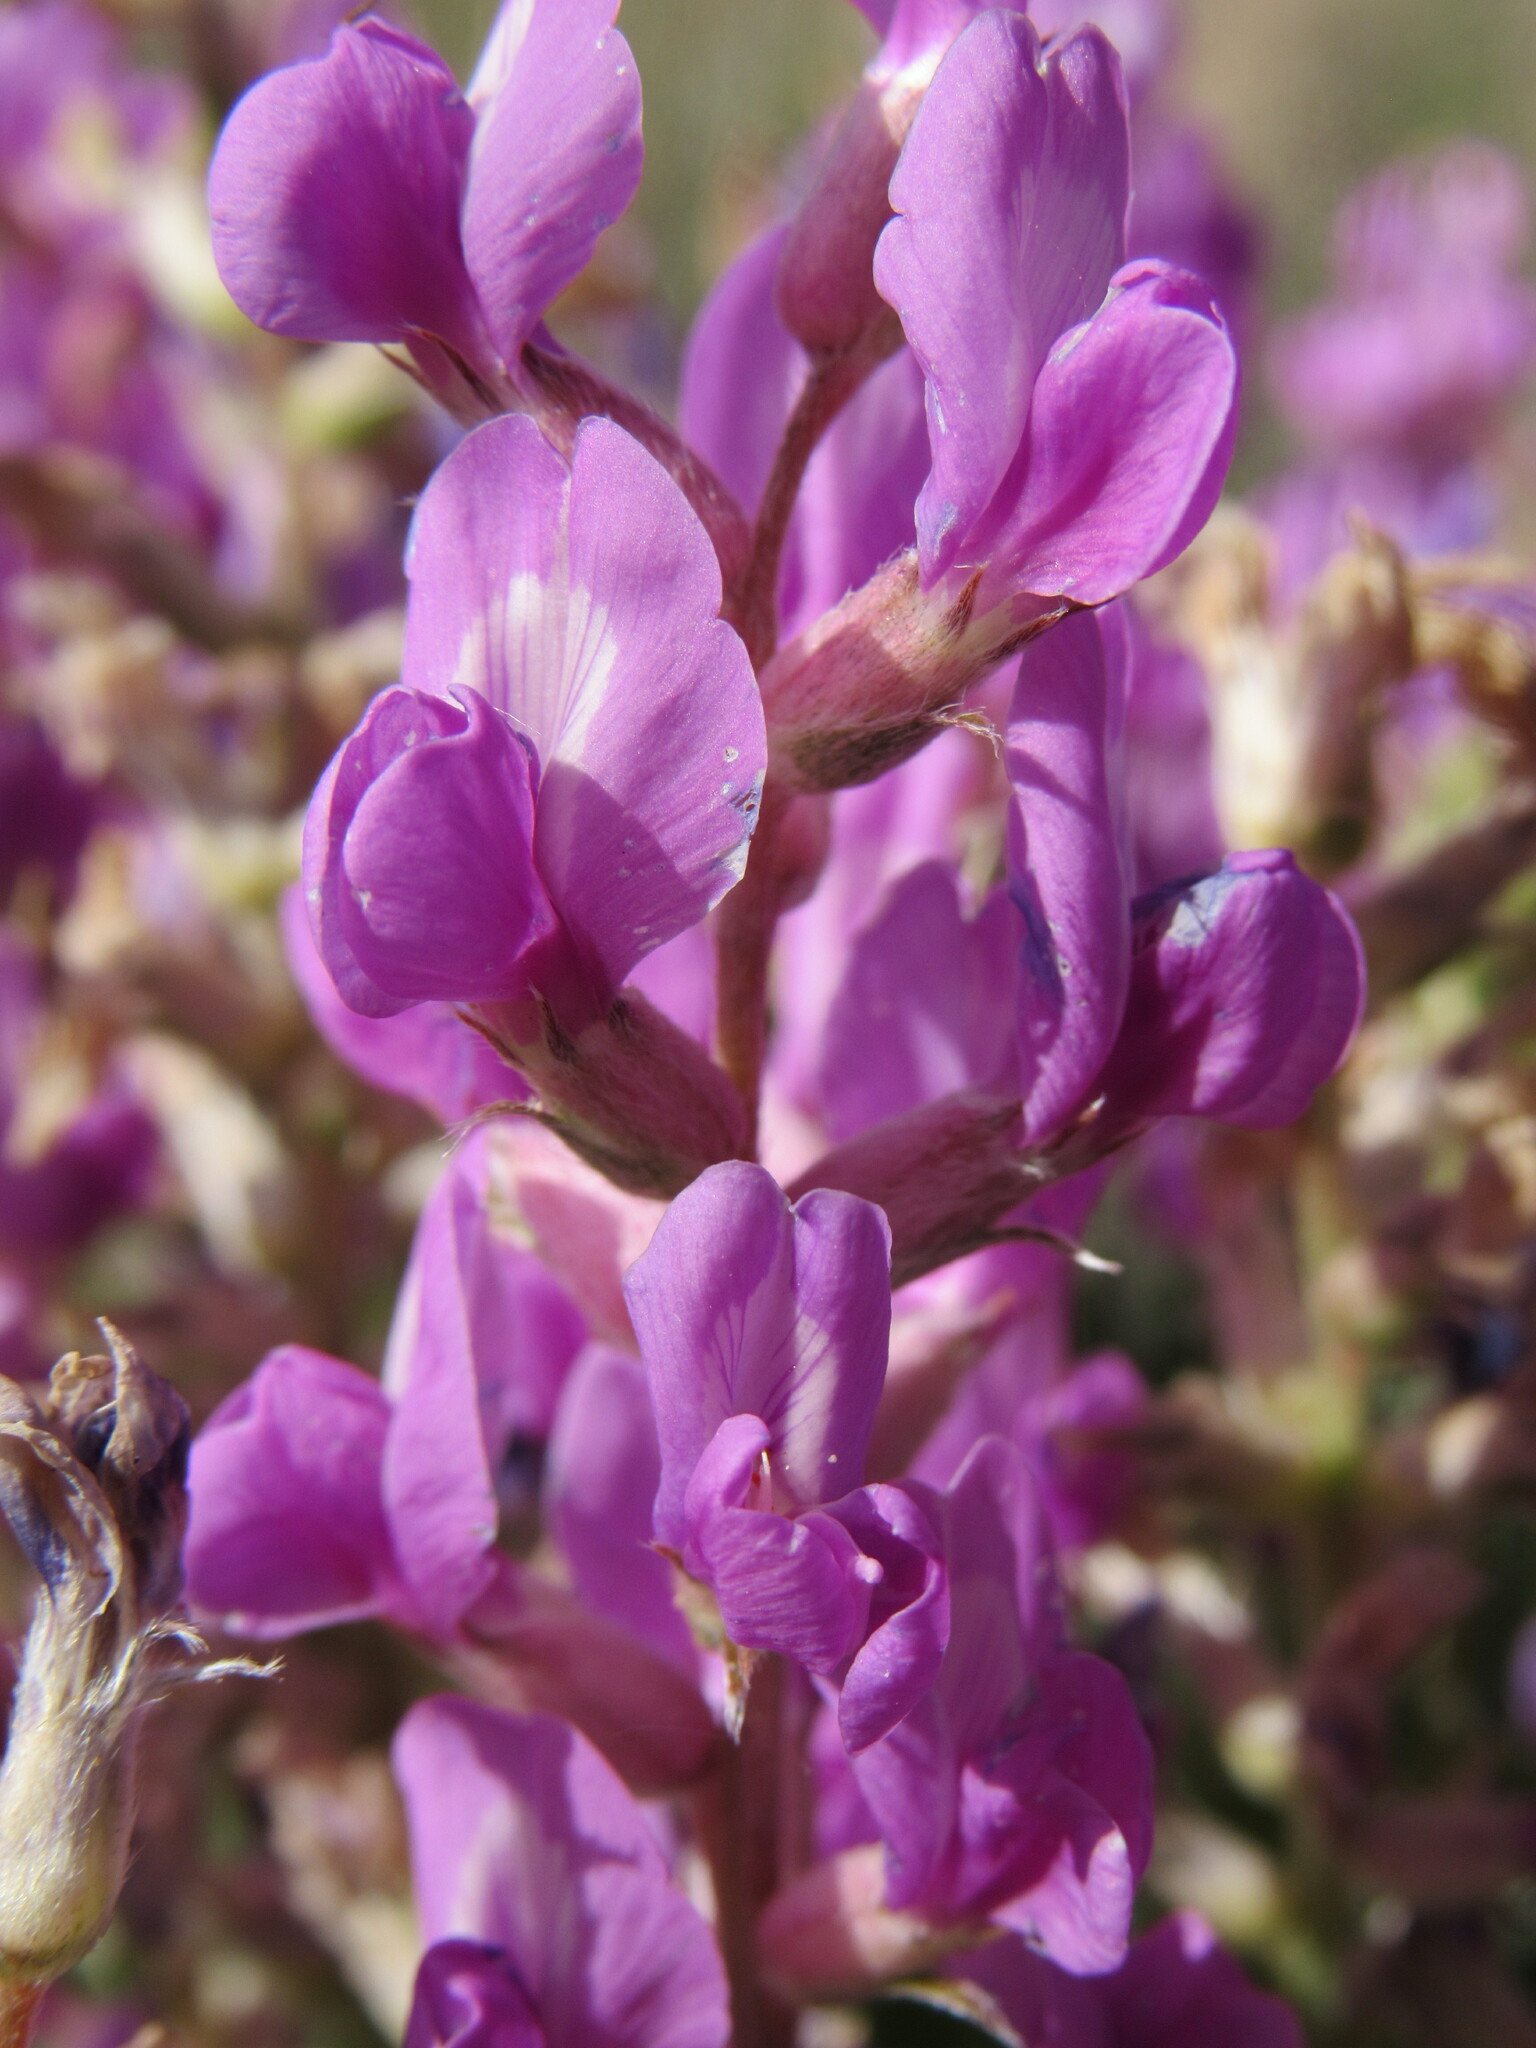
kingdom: Plantae
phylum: Tracheophyta
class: Magnoliopsida
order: Fabales
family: Fabaceae
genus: Oxytropis
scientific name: Oxytropis lambertii
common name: Purple locoweed
